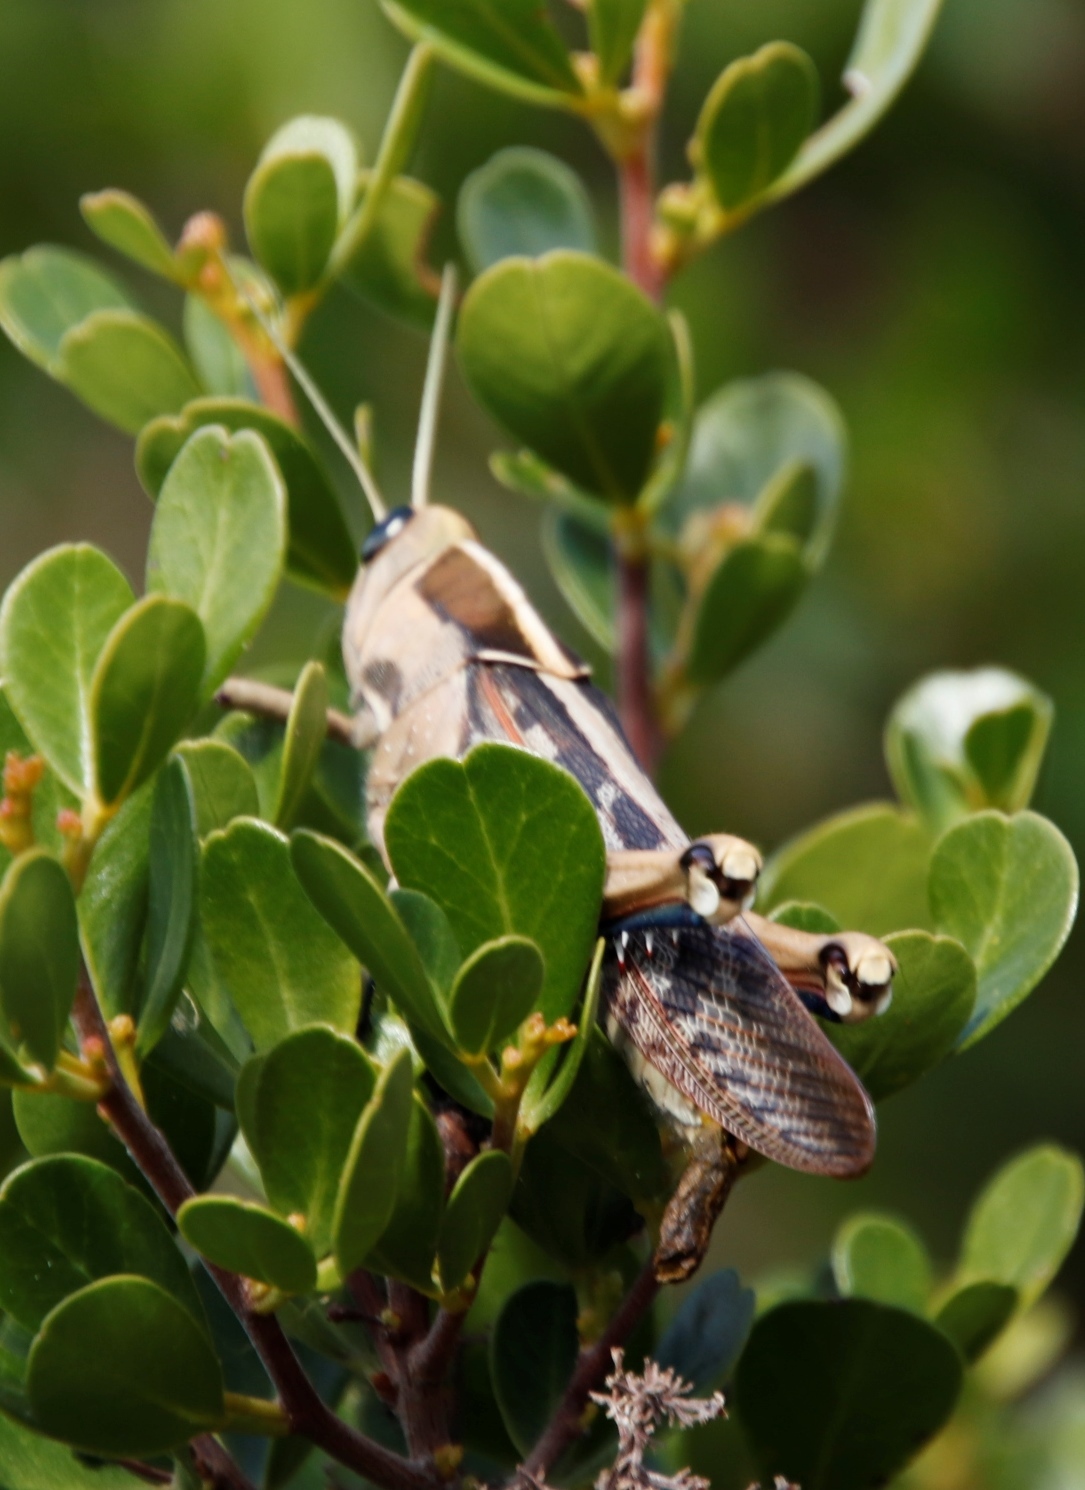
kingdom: Animalia
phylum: Arthropoda
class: Insecta
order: Orthoptera
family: Acrididae
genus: Acanthacris
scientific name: Acanthacris ruficornis
